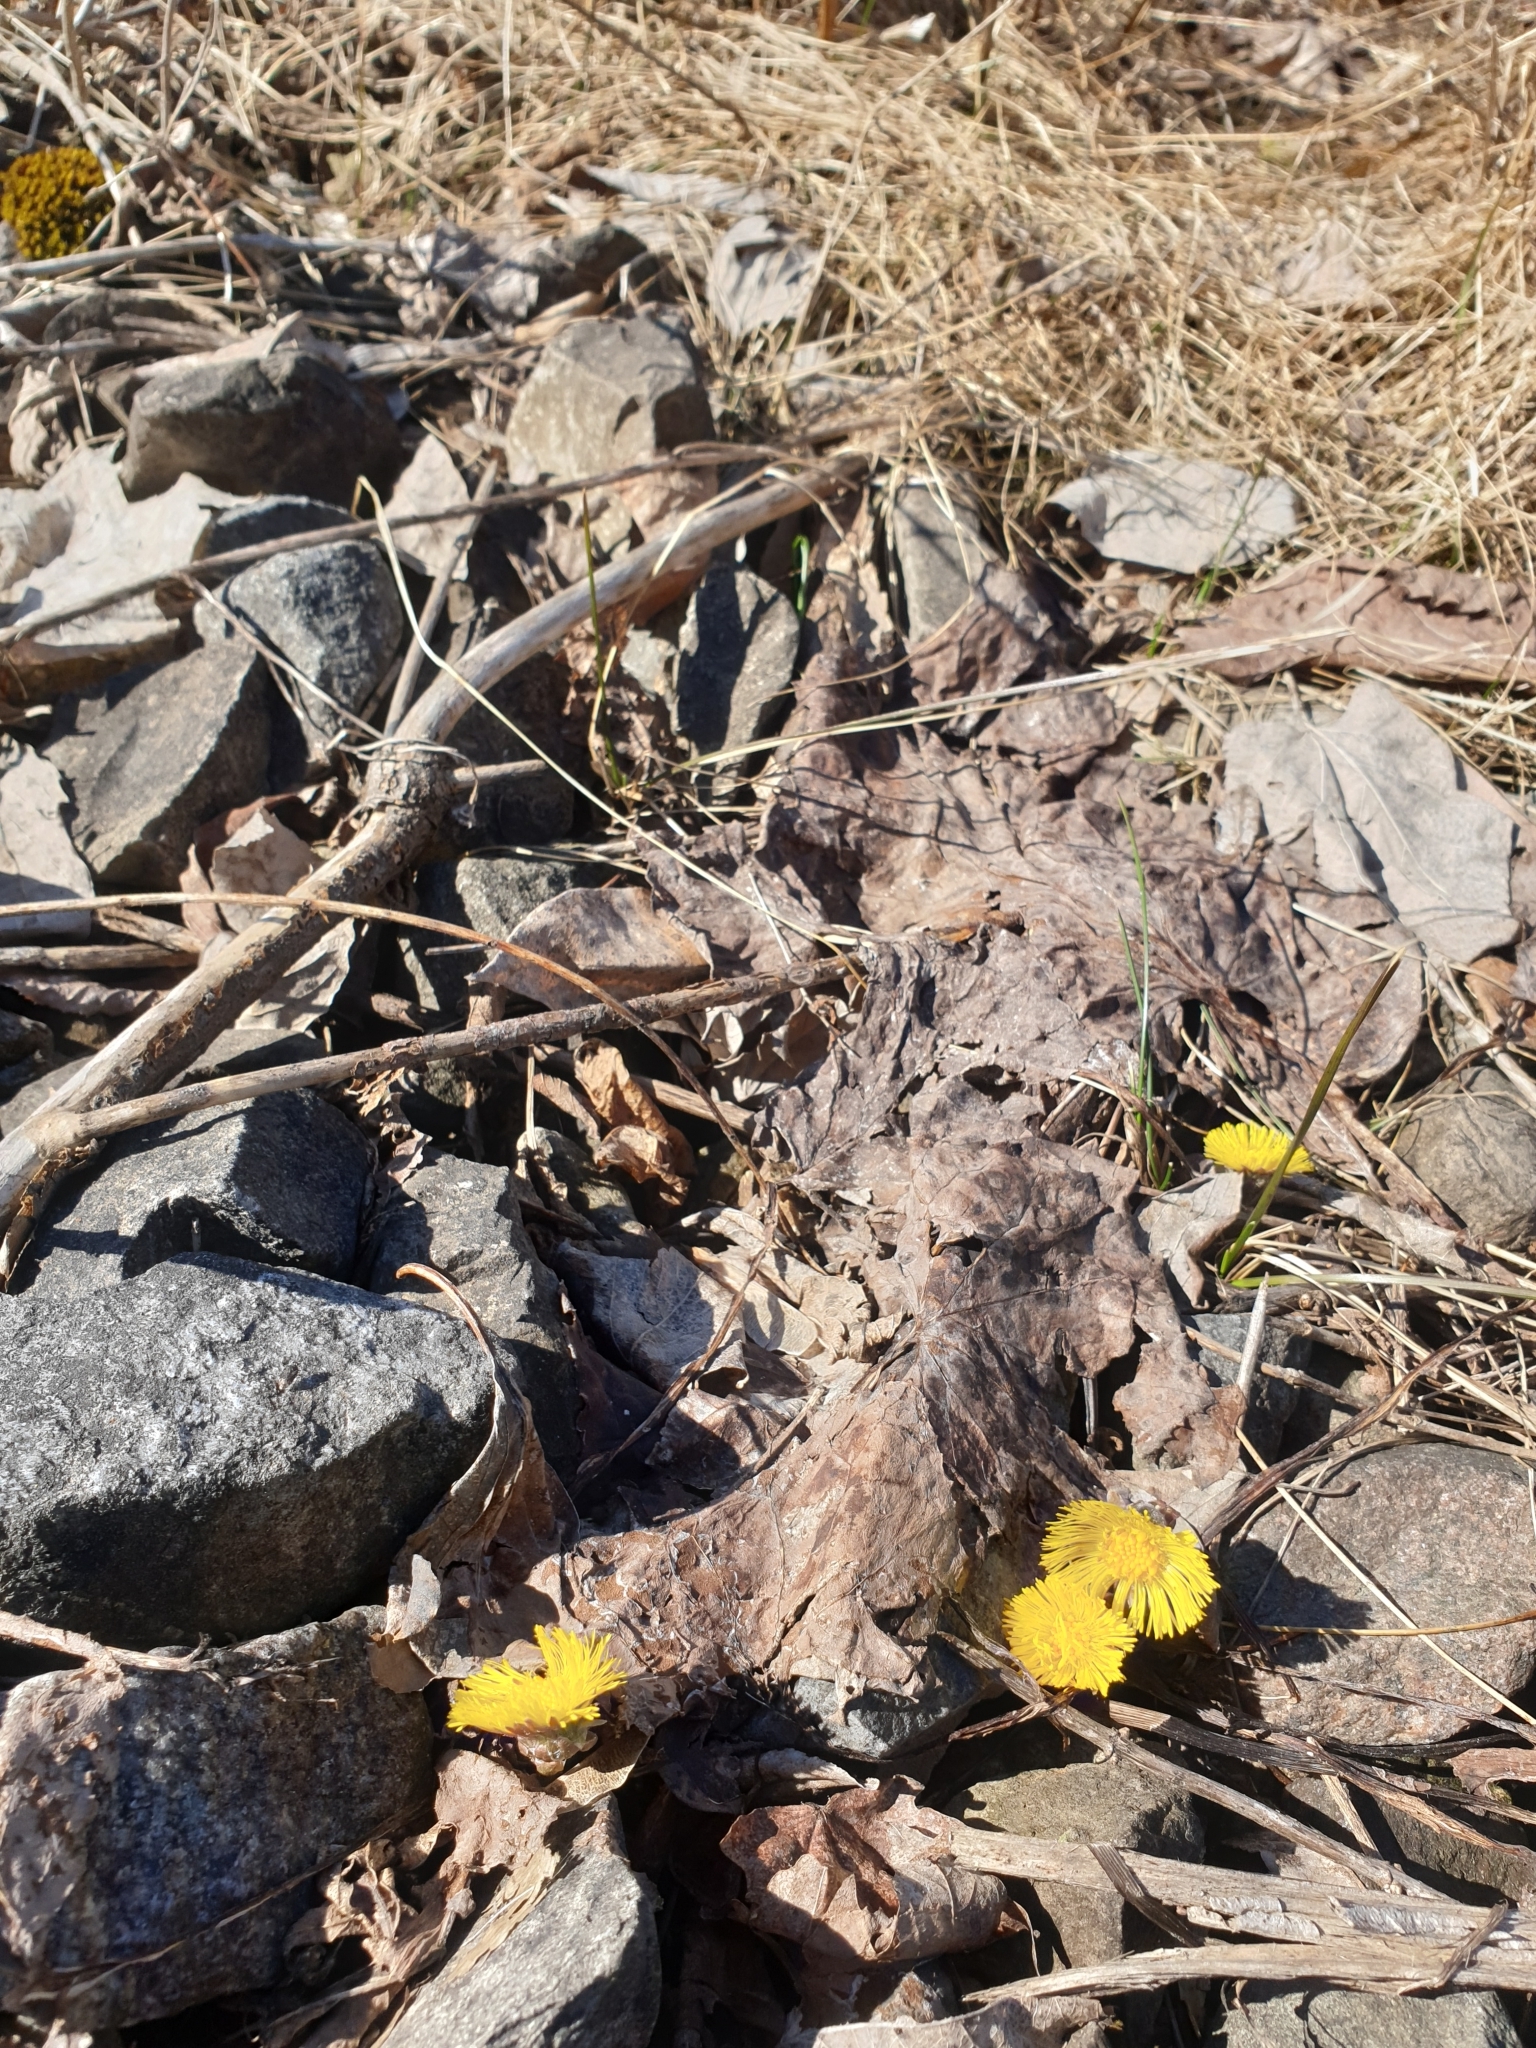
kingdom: Plantae
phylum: Tracheophyta
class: Magnoliopsida
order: Asterales
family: Asteraceae
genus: Tussilago
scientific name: Tussilago farfara
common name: Coltsfoot
